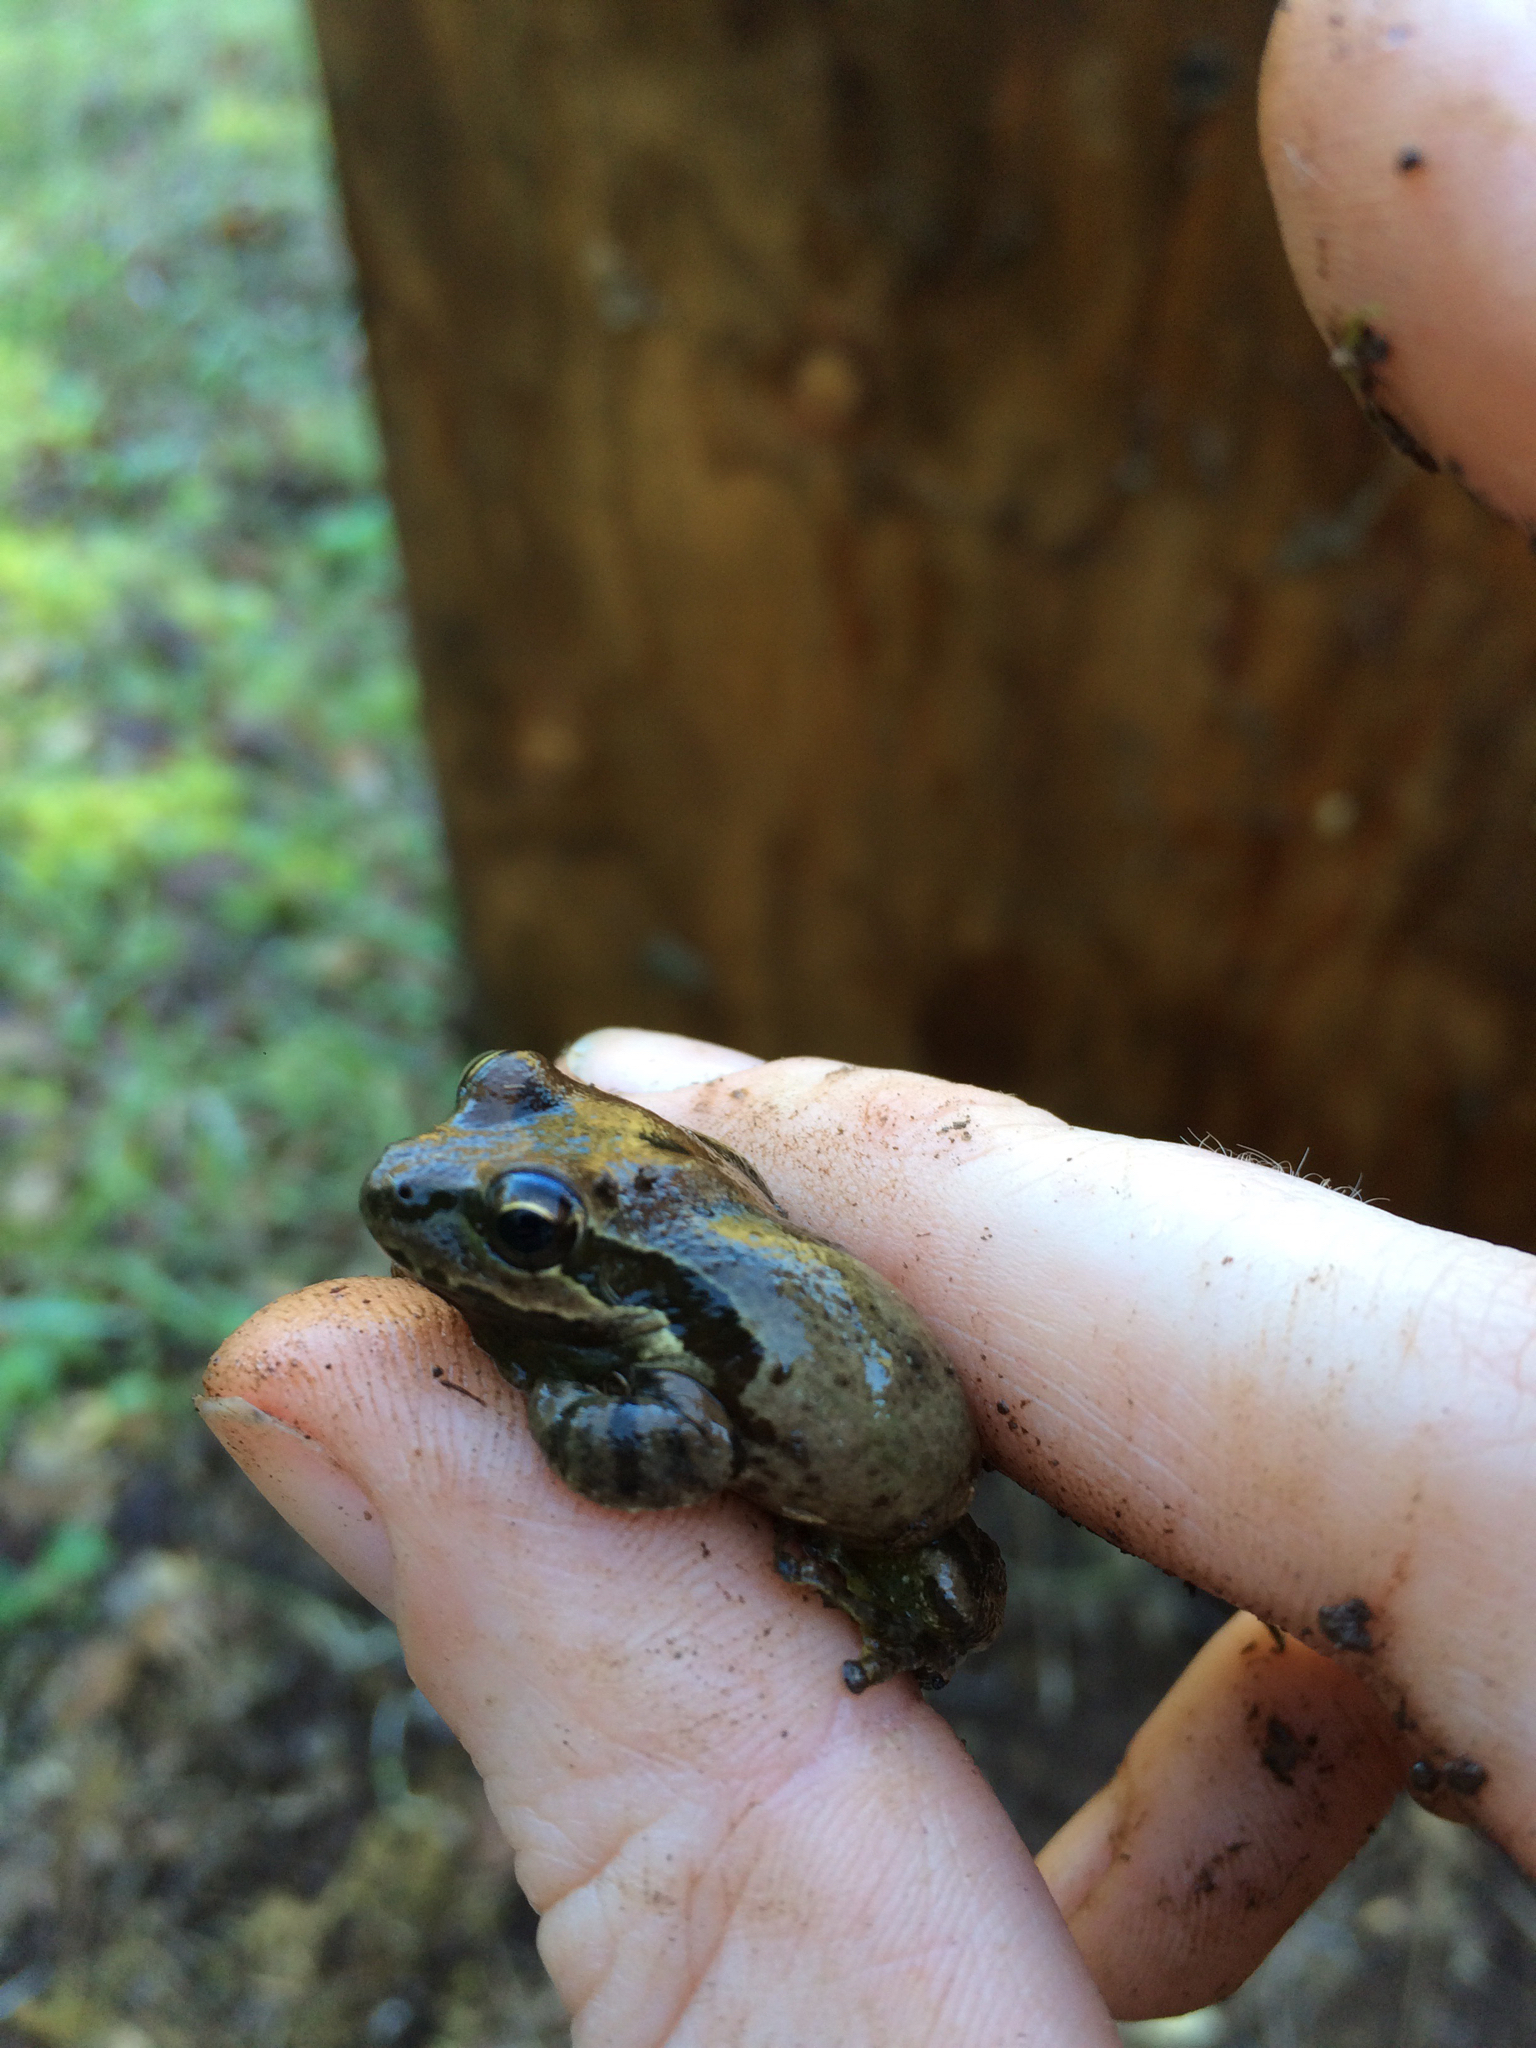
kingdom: Animalia
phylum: Chordata
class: Amphibia
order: Anura
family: Hylidae
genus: Pseudacris
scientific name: Pseudacris regilla
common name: Pacific chorus frog
